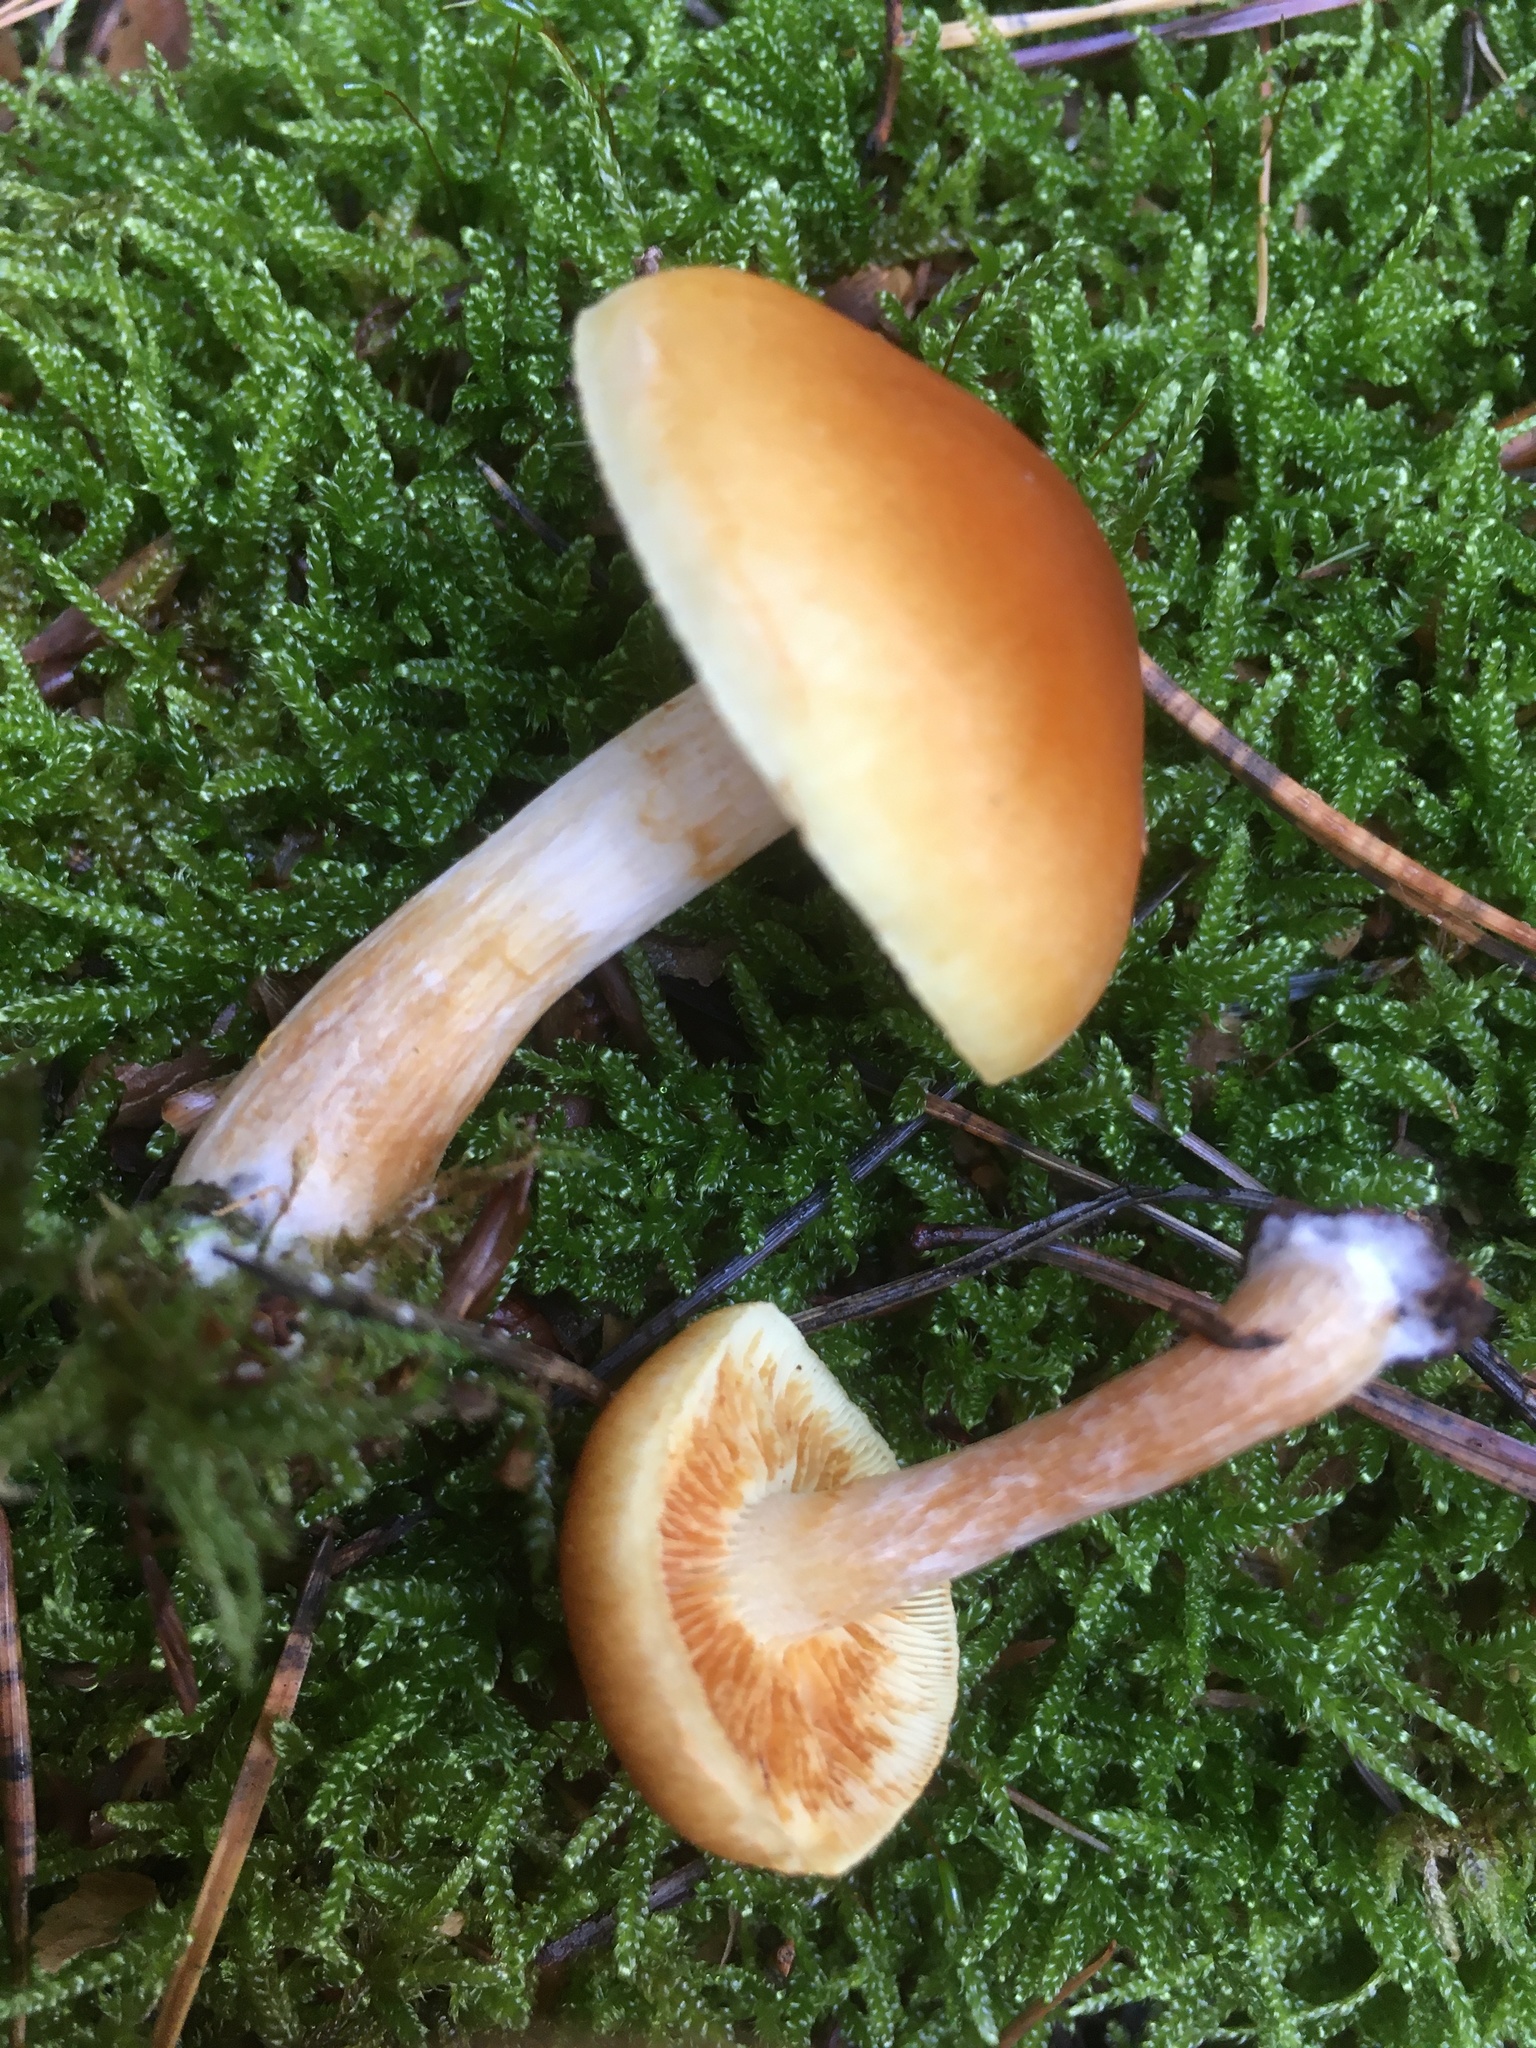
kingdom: Fungi
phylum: Basidiomycota
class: Agaricomycetes
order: Agaricales
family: Hymenogastraceae
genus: Gymnopilus
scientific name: Gymnopilus penetrans
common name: Common rustgill
